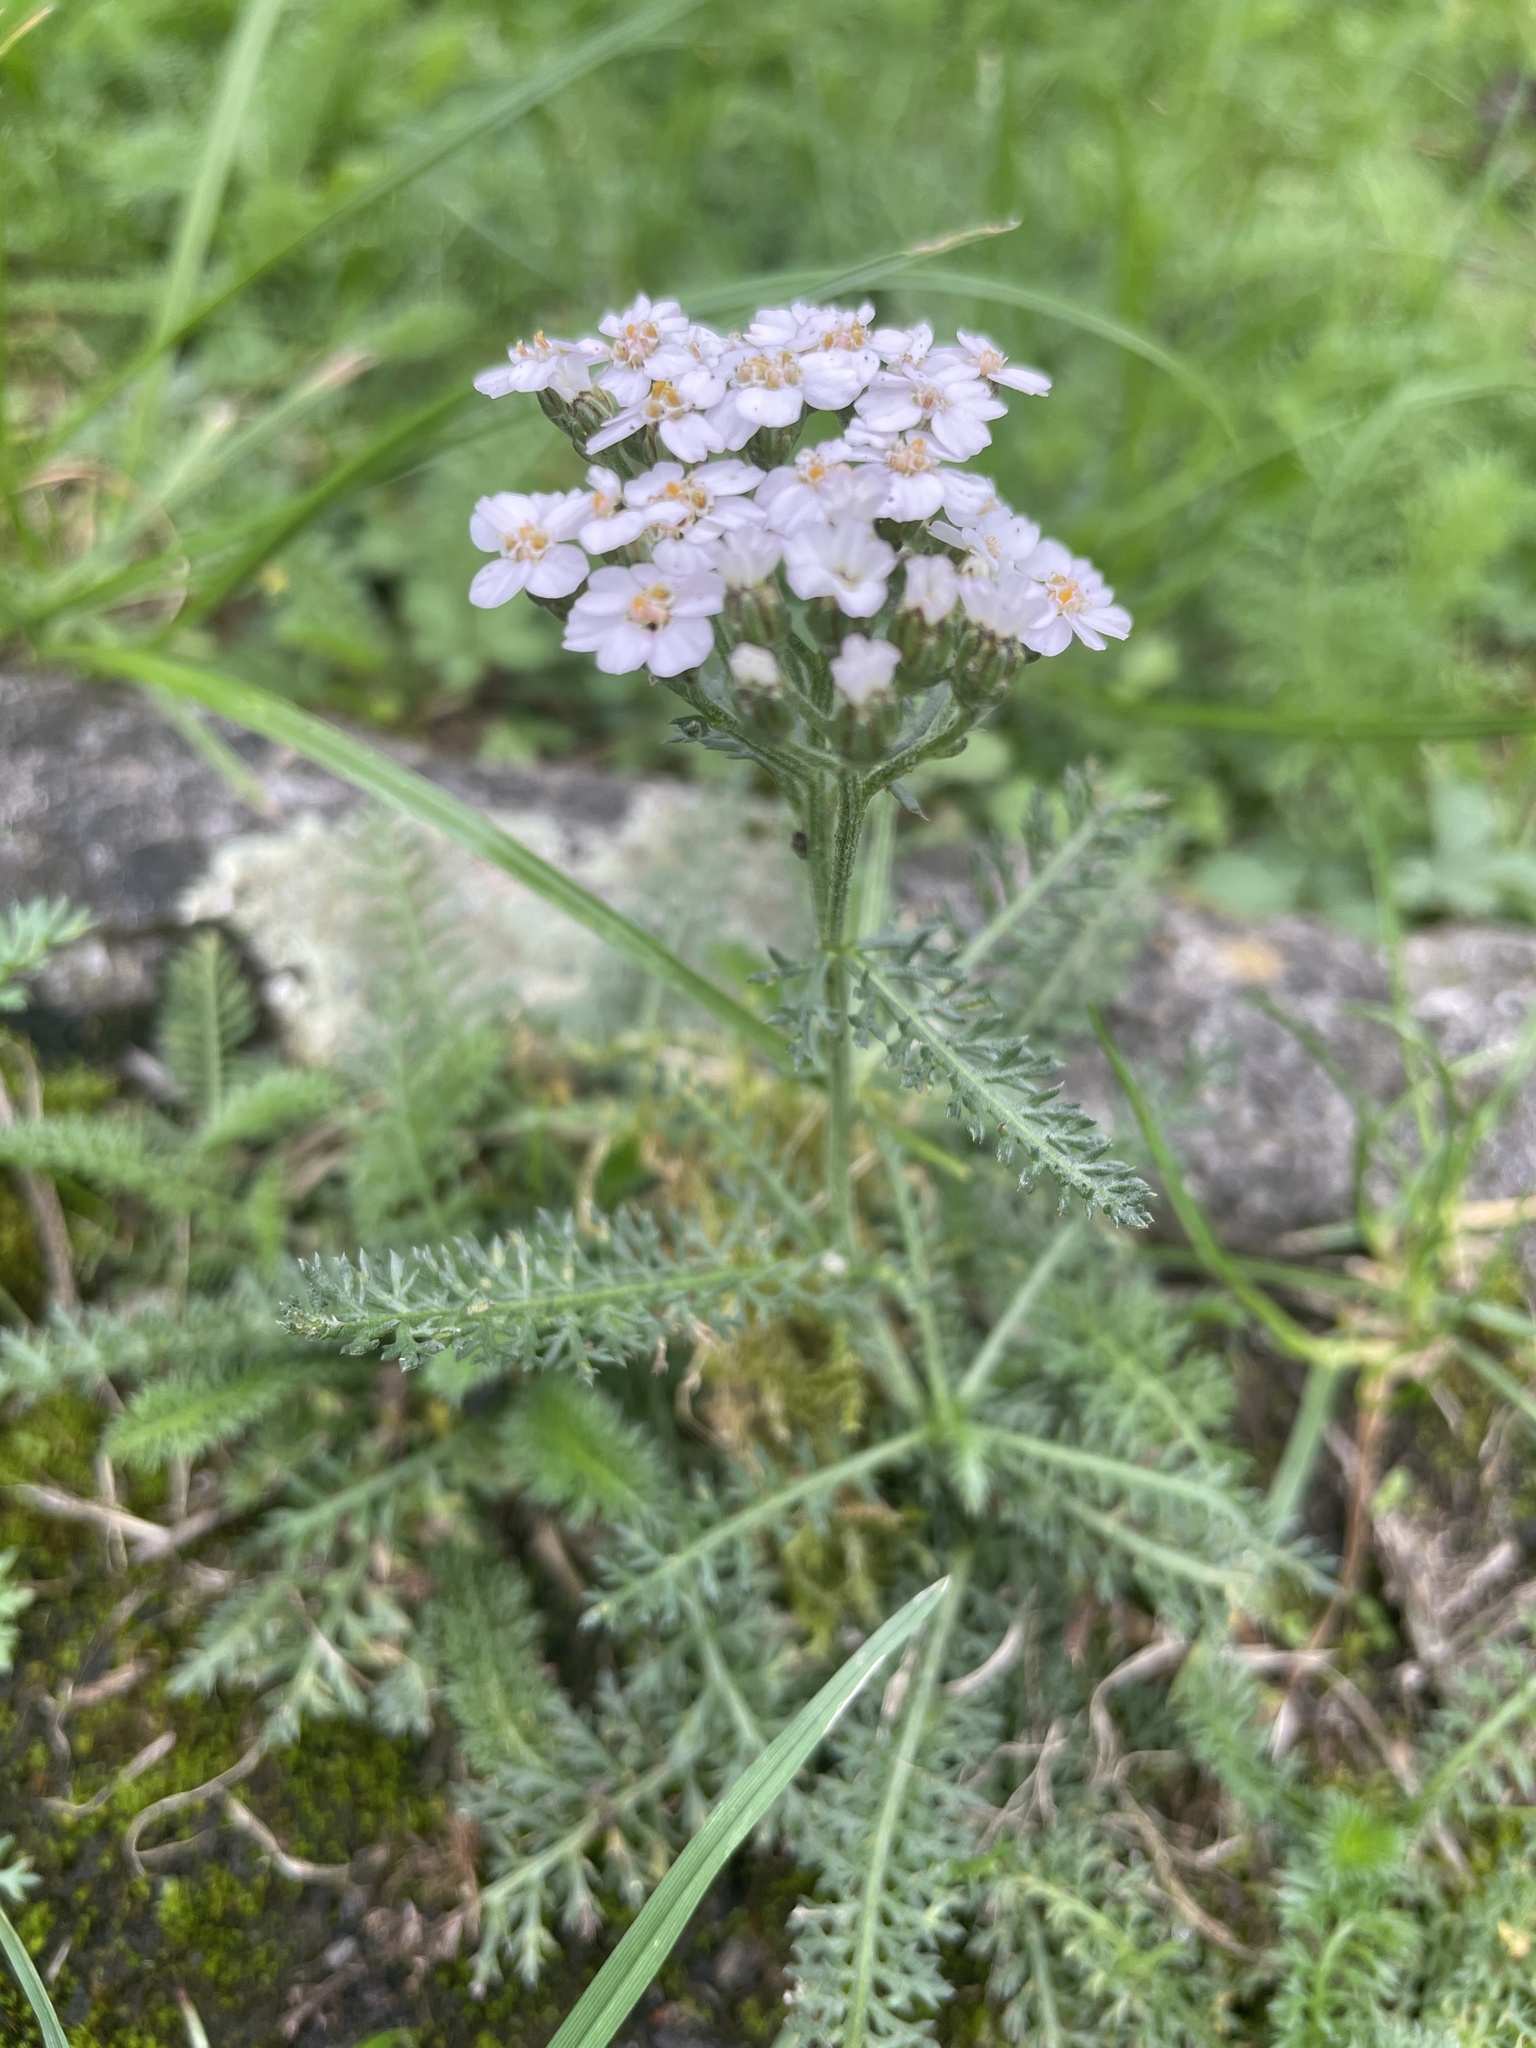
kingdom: Plantae
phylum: Tracheophyta
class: Magnoliopsida
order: Asterales
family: Asteraceae
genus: Achillea
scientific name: Achillea millefolium
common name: Yarrow
